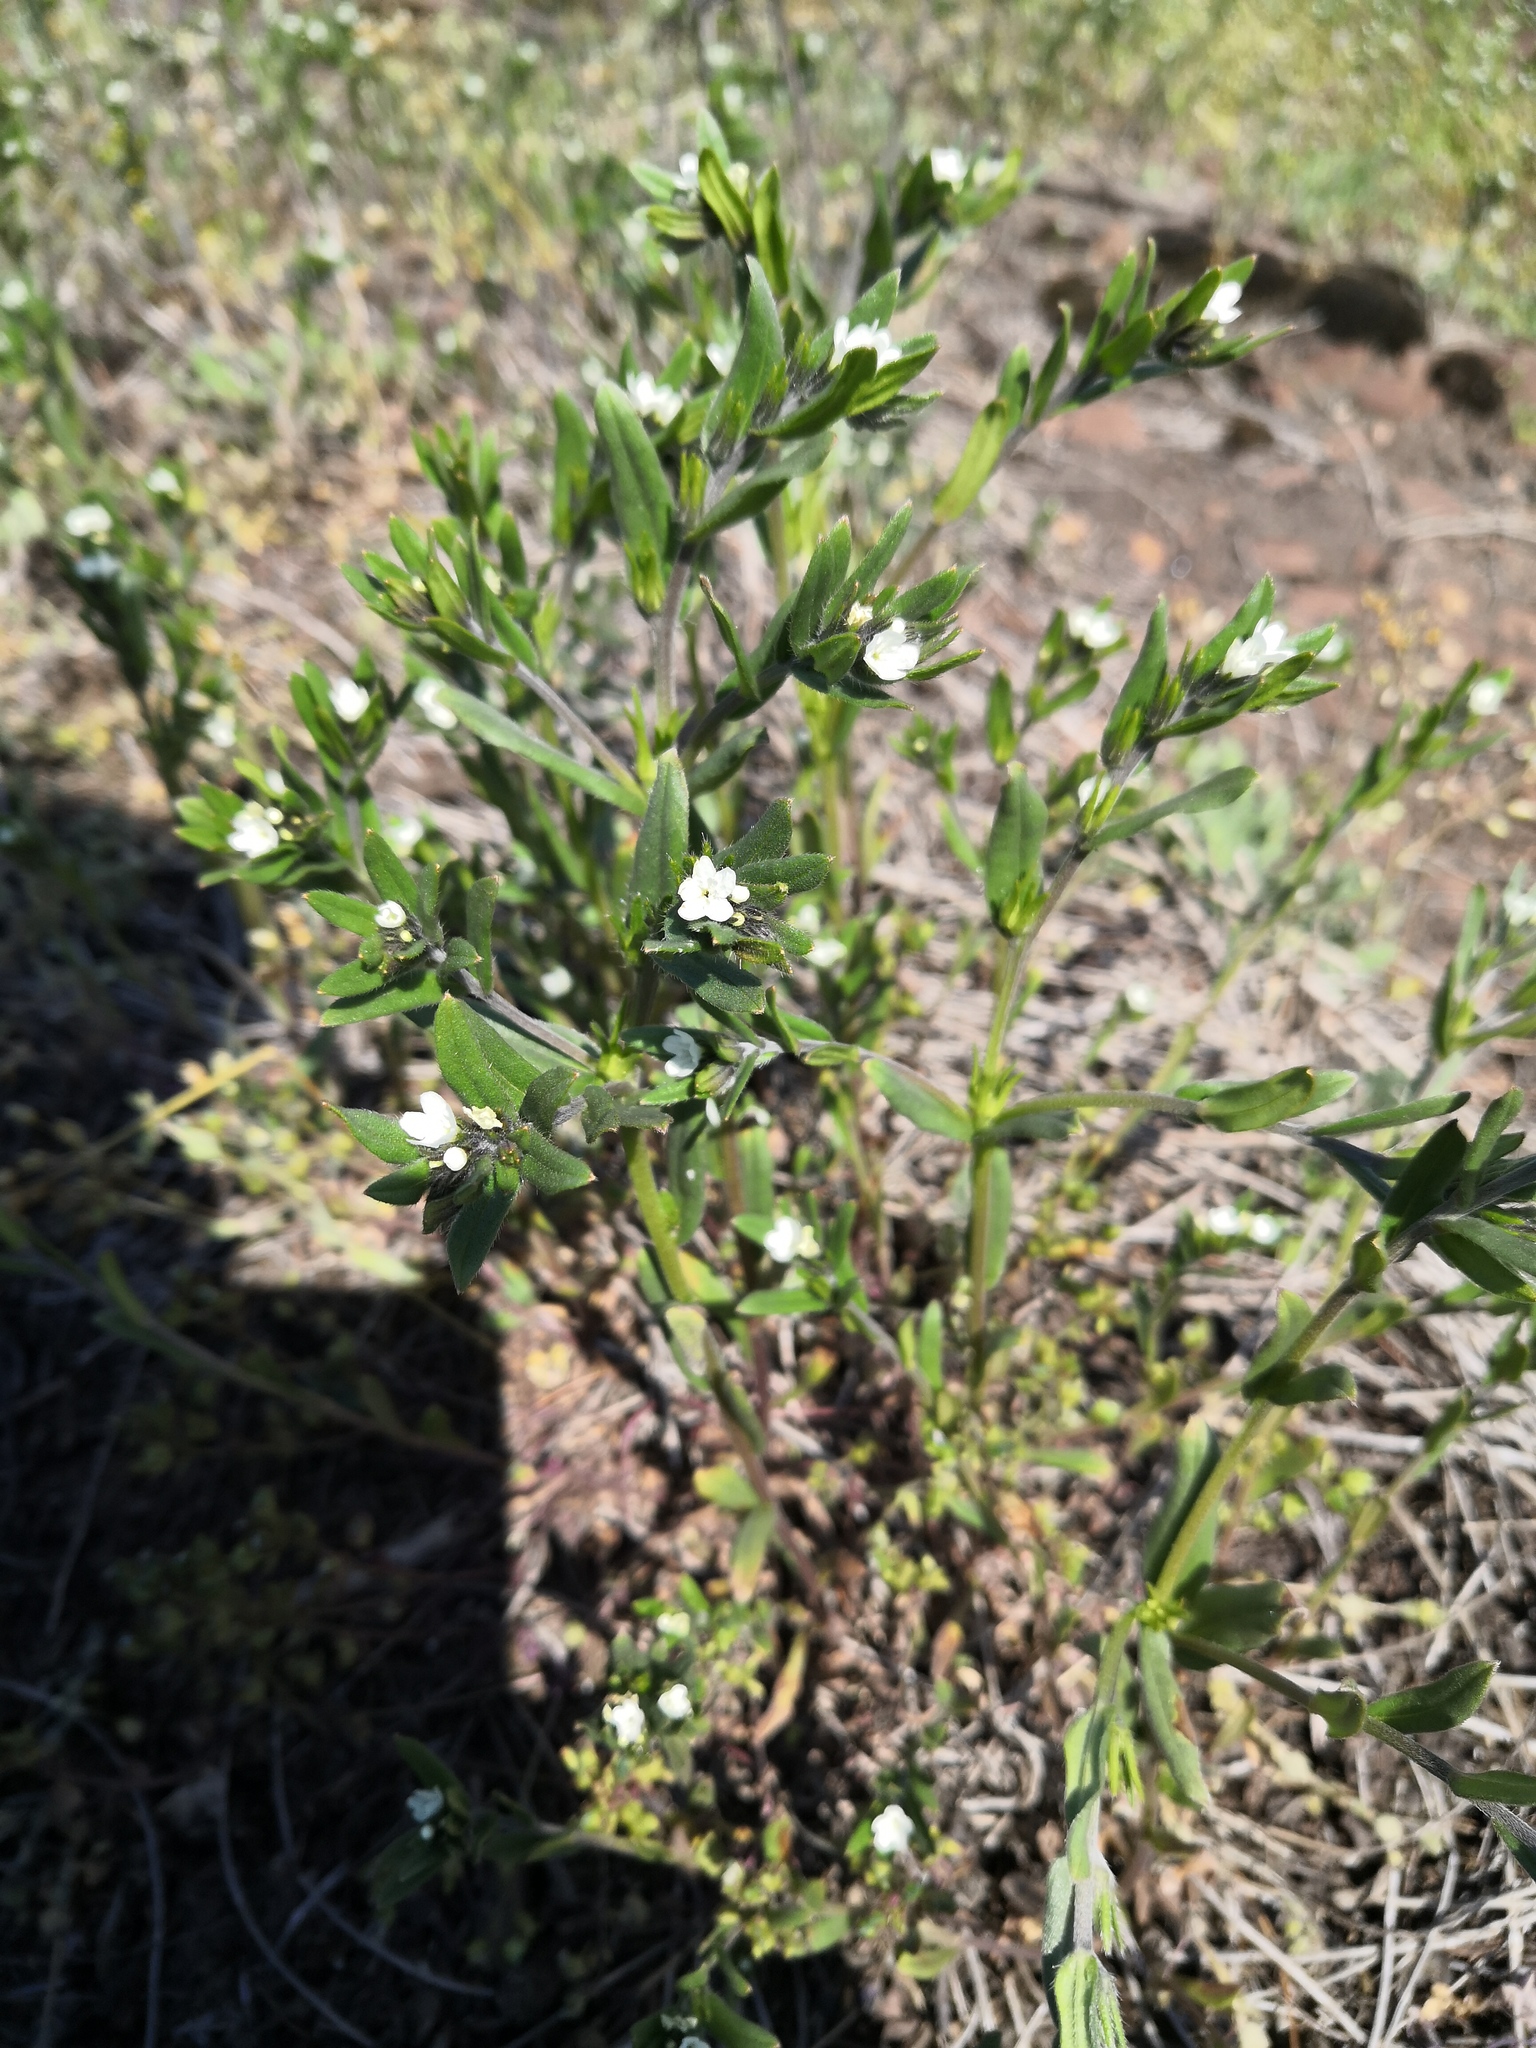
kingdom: Plantae
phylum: Tracheophyta
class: Magnoliopsida
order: Boraginales
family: Boraginaceae
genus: Buglossoides
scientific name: Buglossoides arvensis
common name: Corn gromwell
